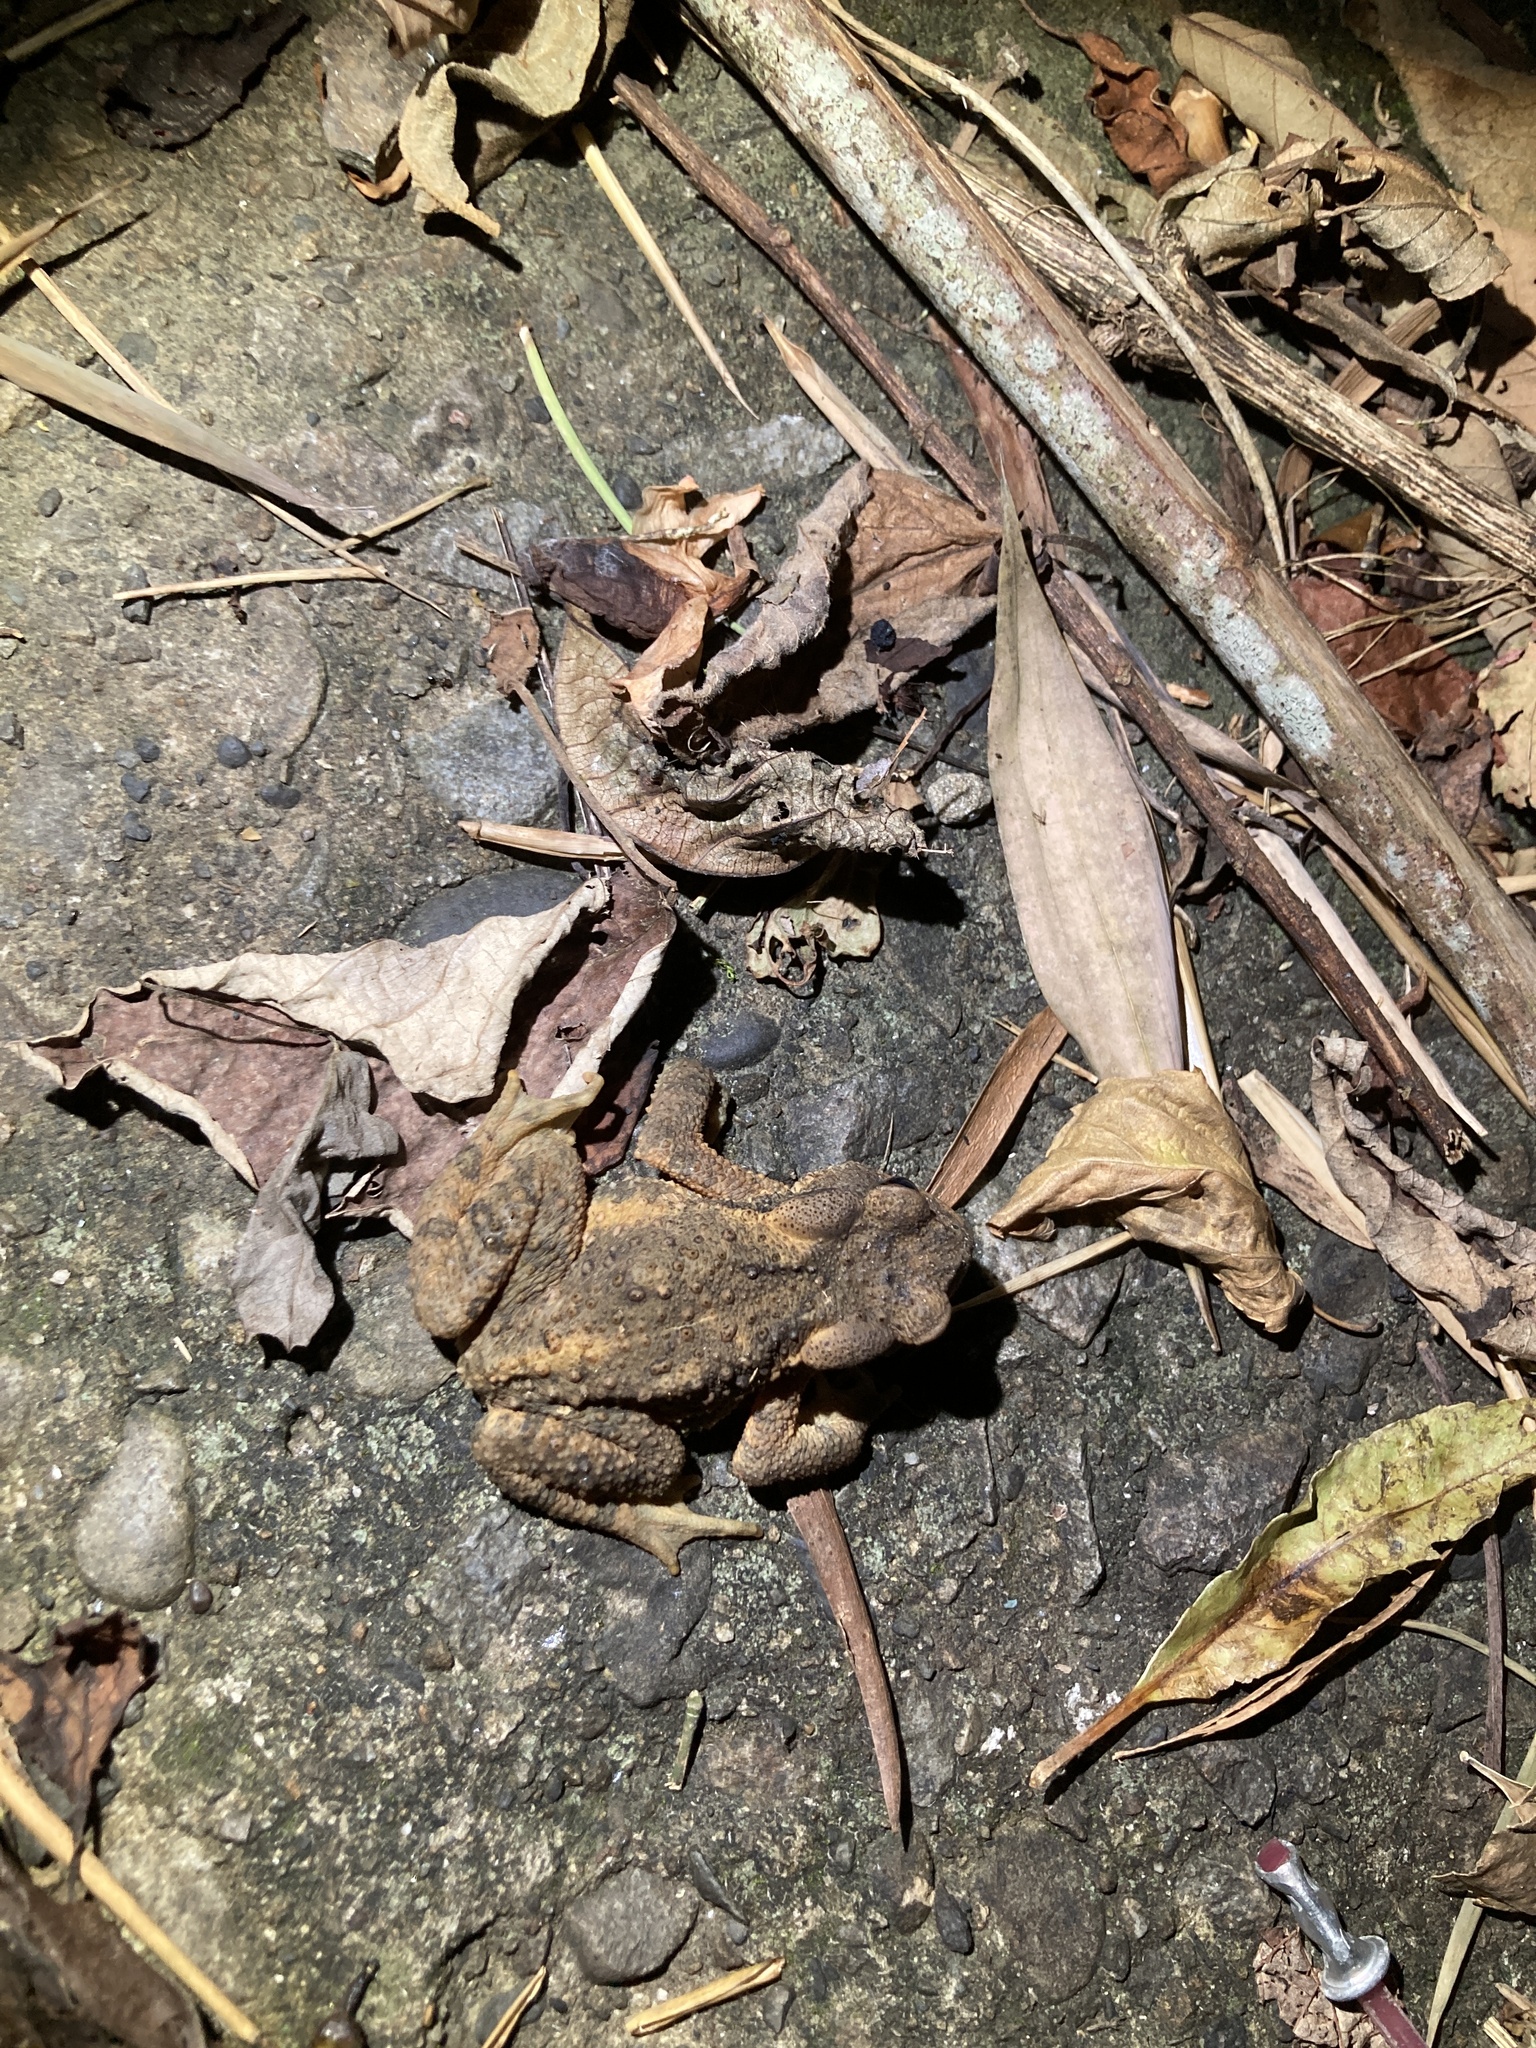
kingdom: Animalia
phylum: Chordata
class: Amphibia
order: Anura
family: Bufonidae
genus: Bufo
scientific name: Bufo bankorensis
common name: Bankor toad
